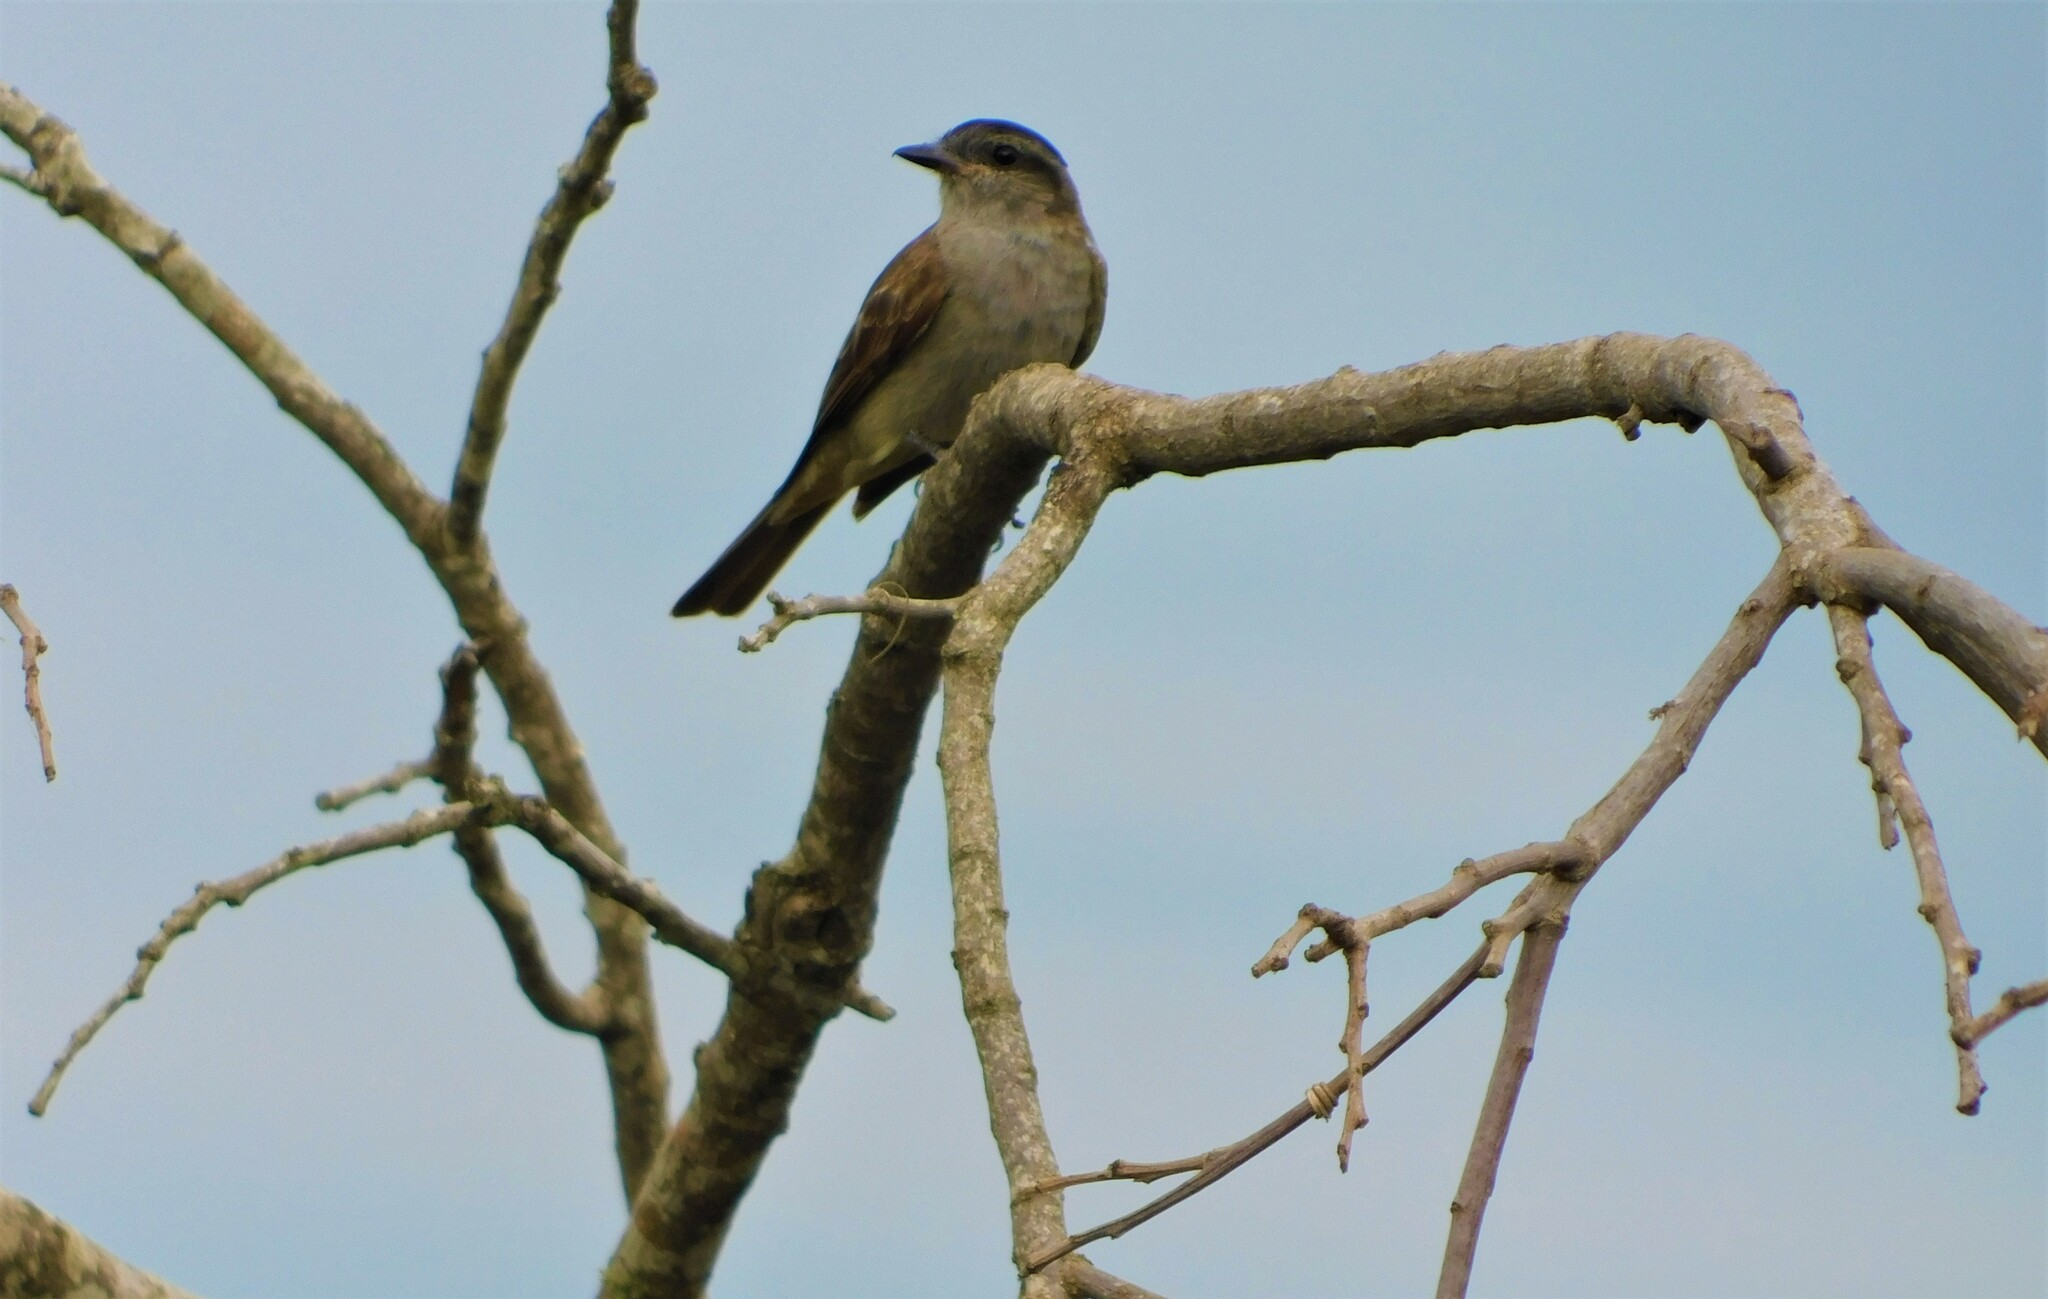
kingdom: Animalia
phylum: Chordata
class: Aves
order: Passeriformes
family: Tyrannidae
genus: Empidonomus
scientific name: Empidonomus aurantioatrocristatus
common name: Crowned slaty flycatcher
